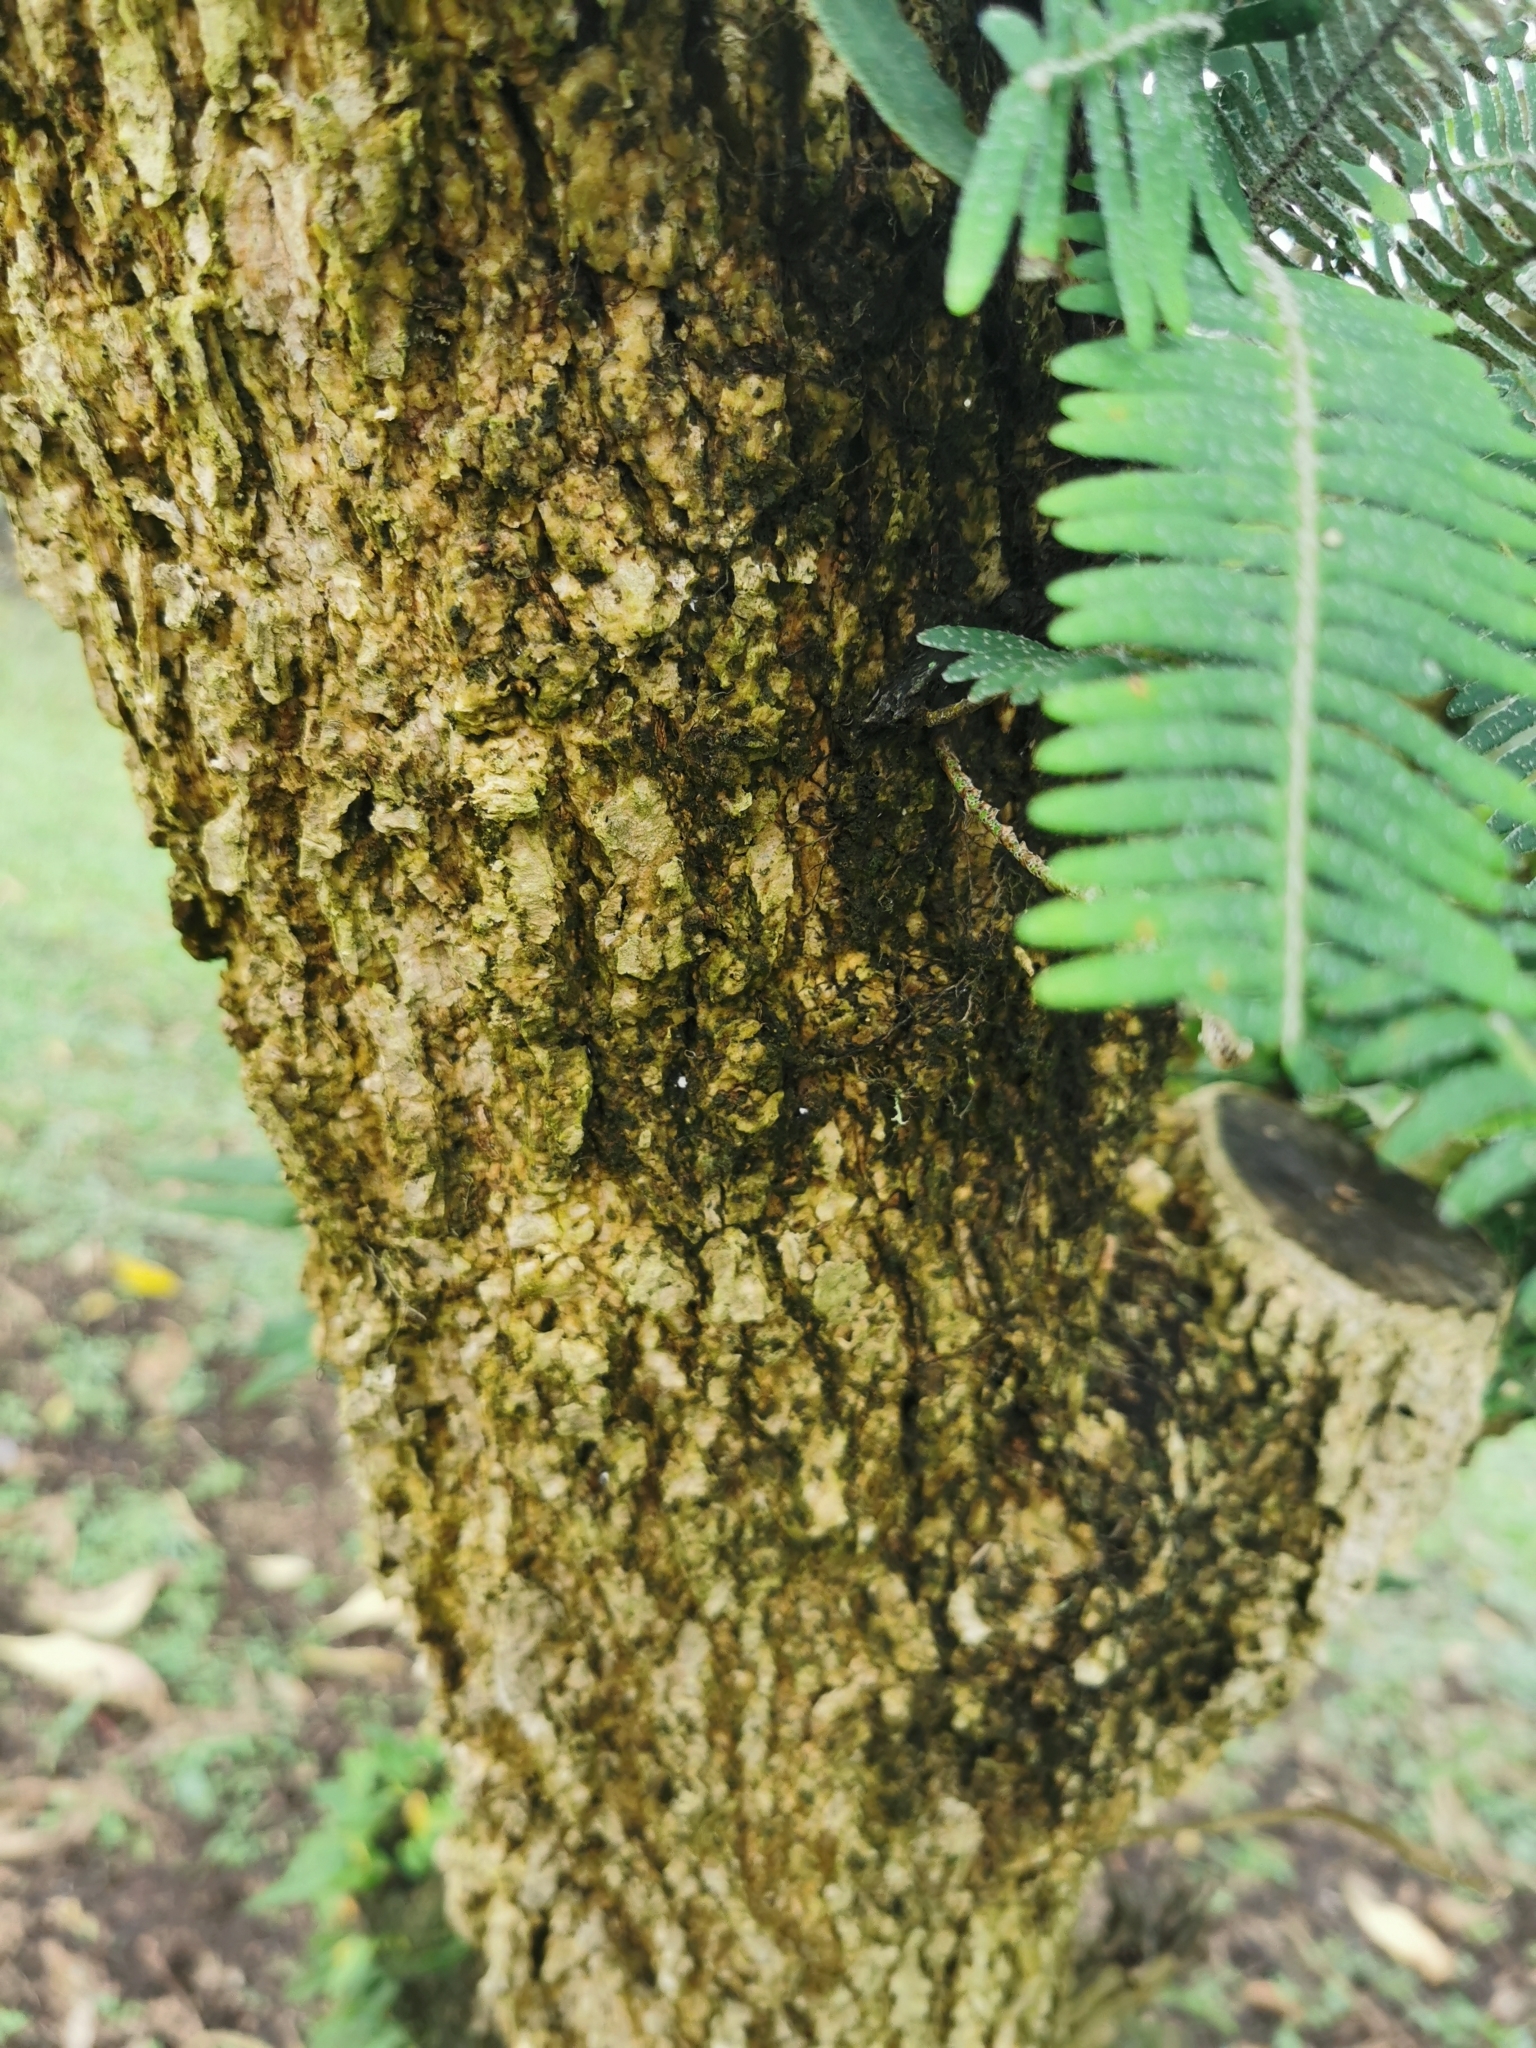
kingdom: Plantae
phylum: Tracheophyta
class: Magnoliopsida
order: Solanales
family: Solanaceae
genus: Iochroma
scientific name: Iochroma arborescens
